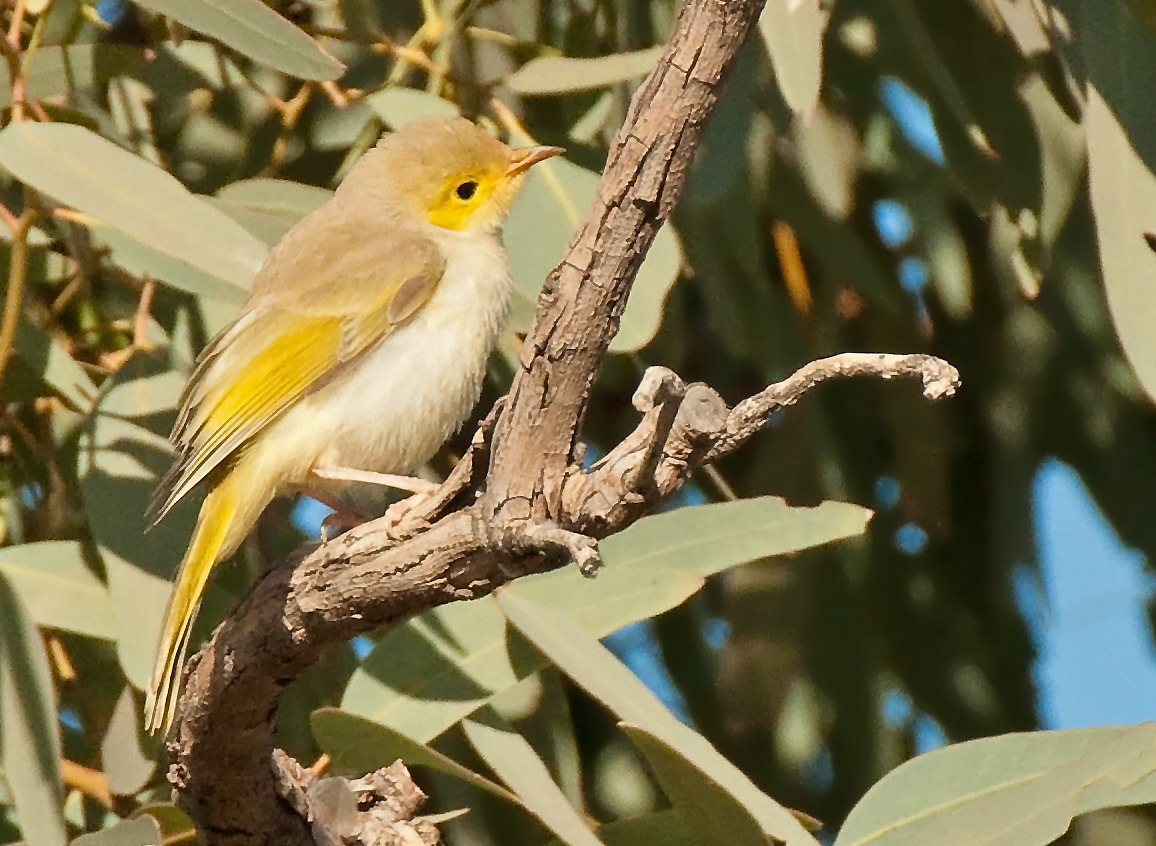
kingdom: Animalia
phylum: Chordata
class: Aves
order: Passeriformes
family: Meliphagidae
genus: Ptilotula
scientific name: Ptilotula penicillata
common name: White-plumed honeyeater
